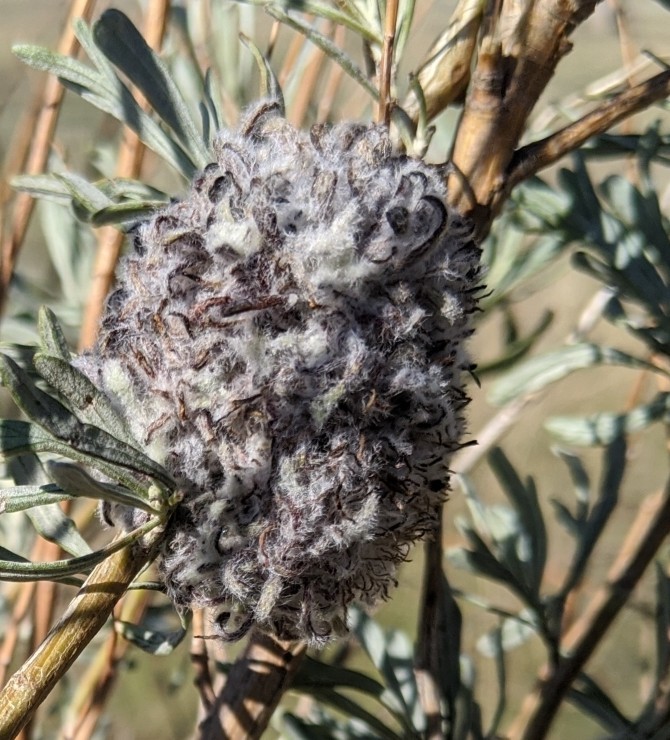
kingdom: Animalia
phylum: Arthropoda
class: Insecta
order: Diptera
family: Cecidomyiidae
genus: Rhopalomyia
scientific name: Rhopalomyia medusirrasa
